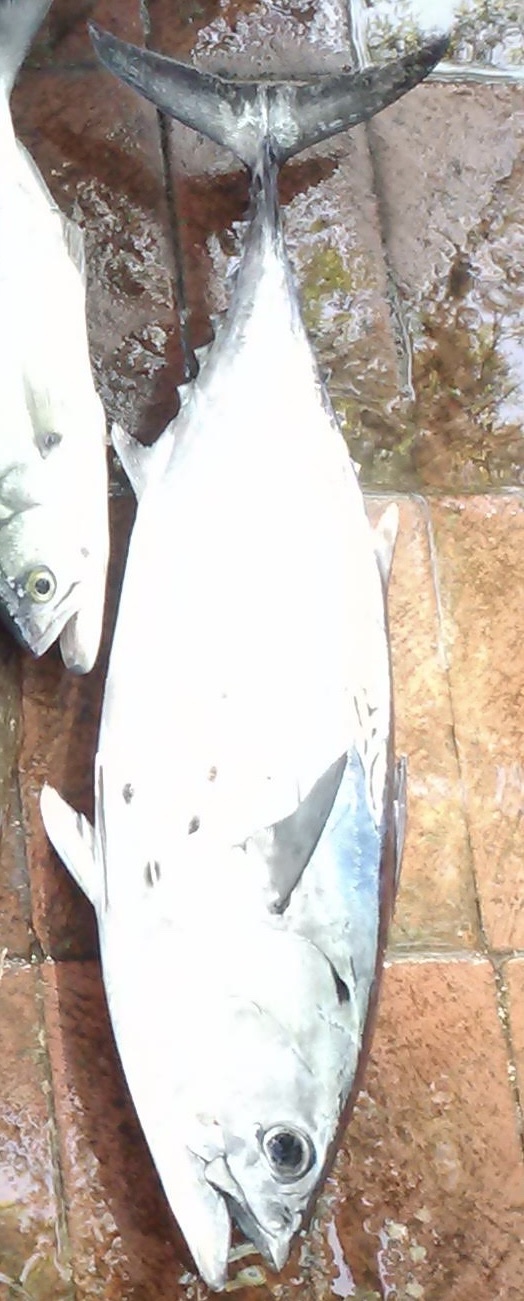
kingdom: Animalia
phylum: Chordata
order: Perciformes
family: Scombridae
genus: Euthynnus
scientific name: Euthynnus alletteratus
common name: Little tunny
